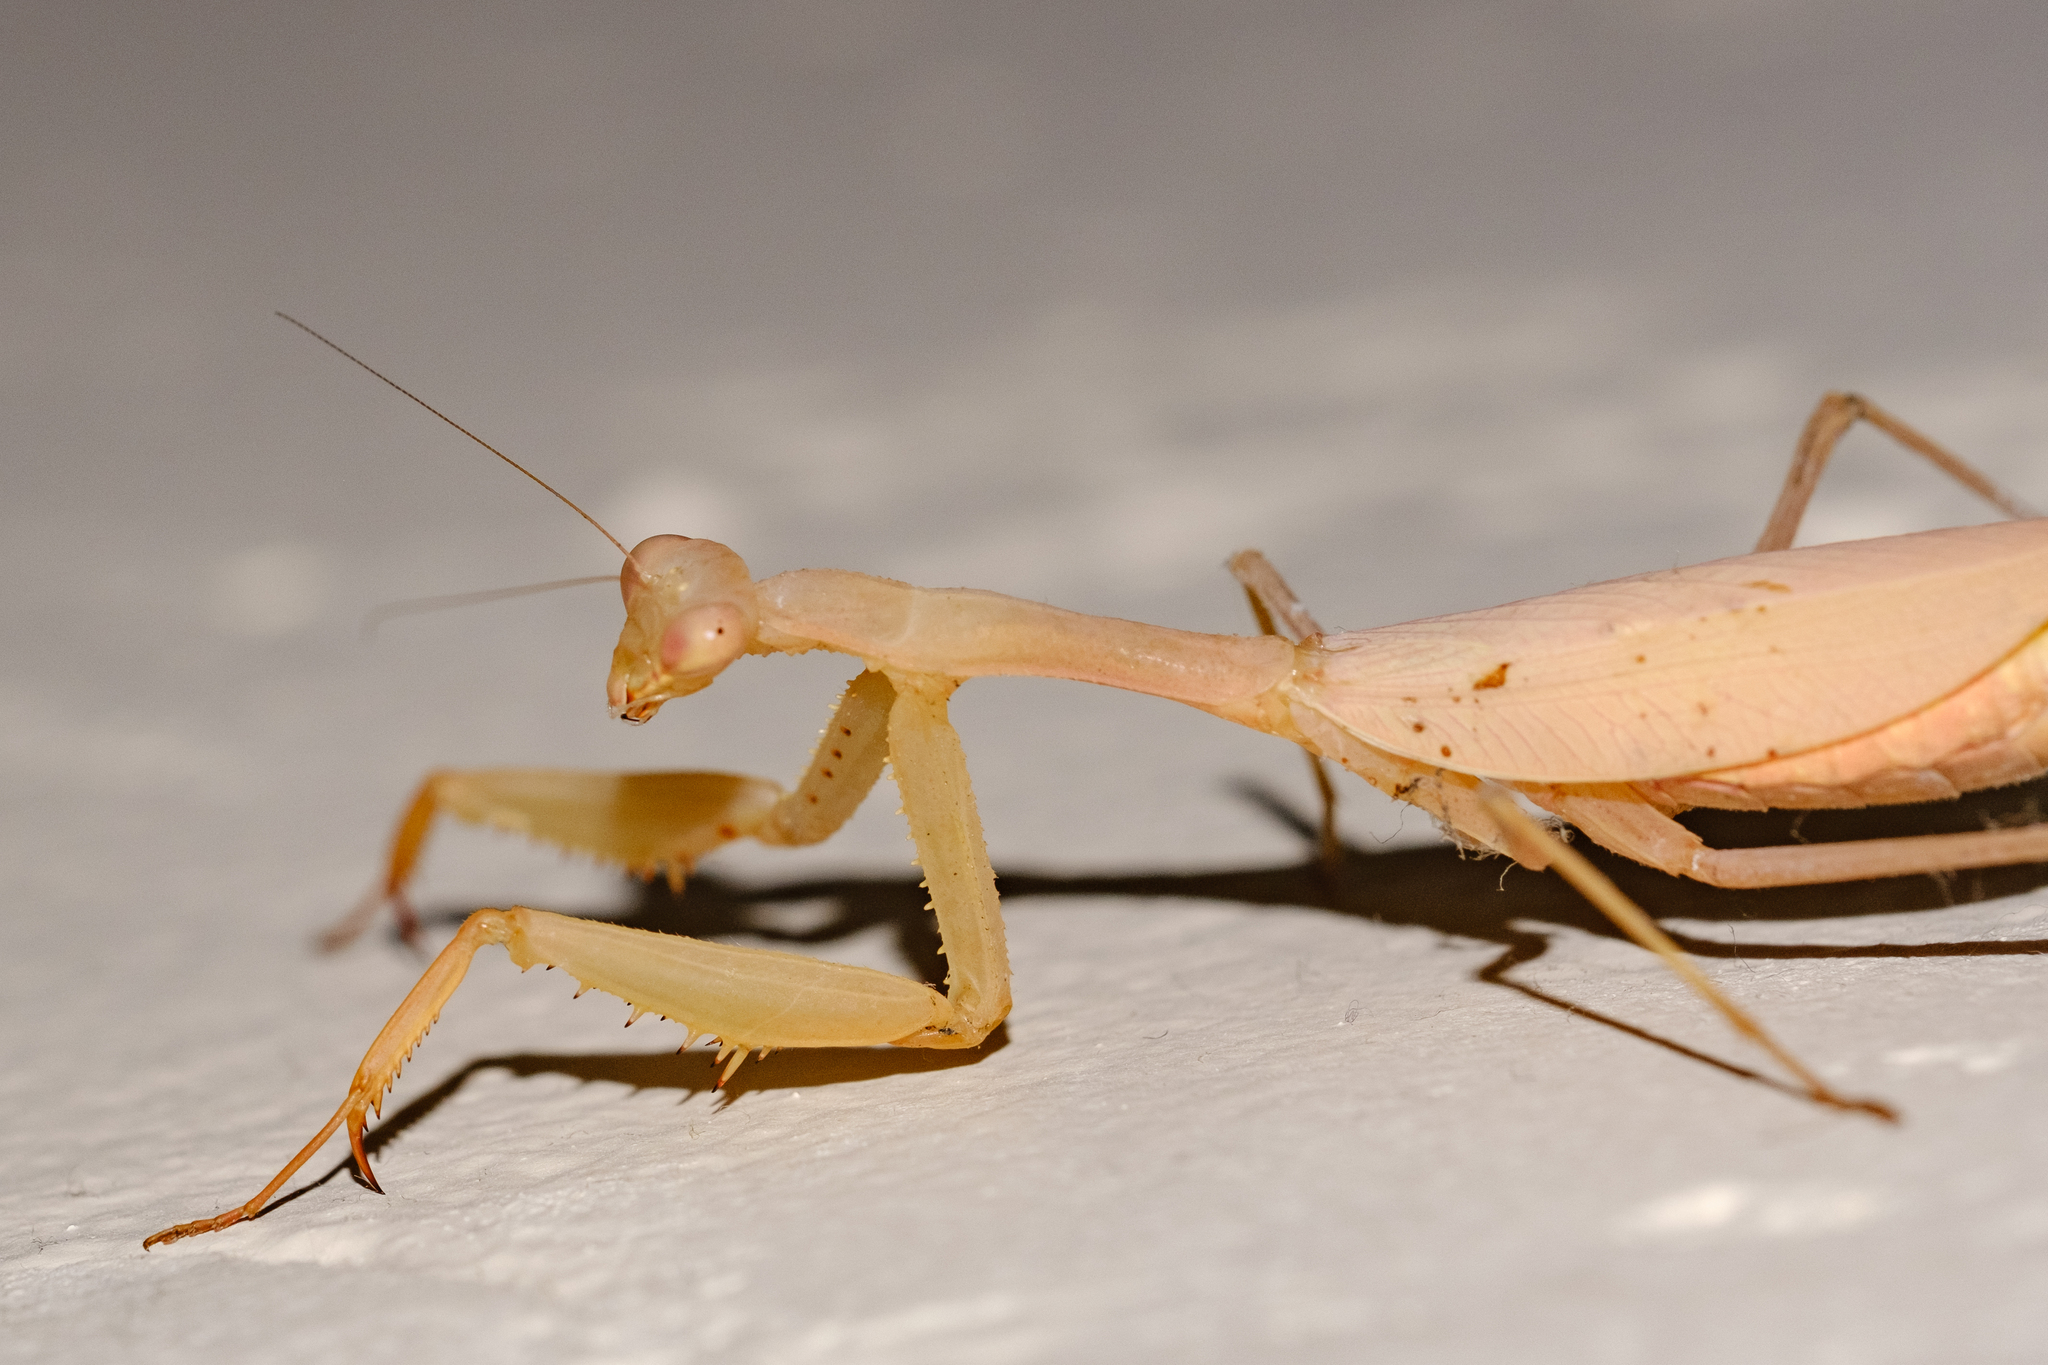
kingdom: Animalia
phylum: Arthropoda
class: Insecta
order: Mantodea
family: Miomantidae
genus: Miomantis
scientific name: Miomantis caffra
